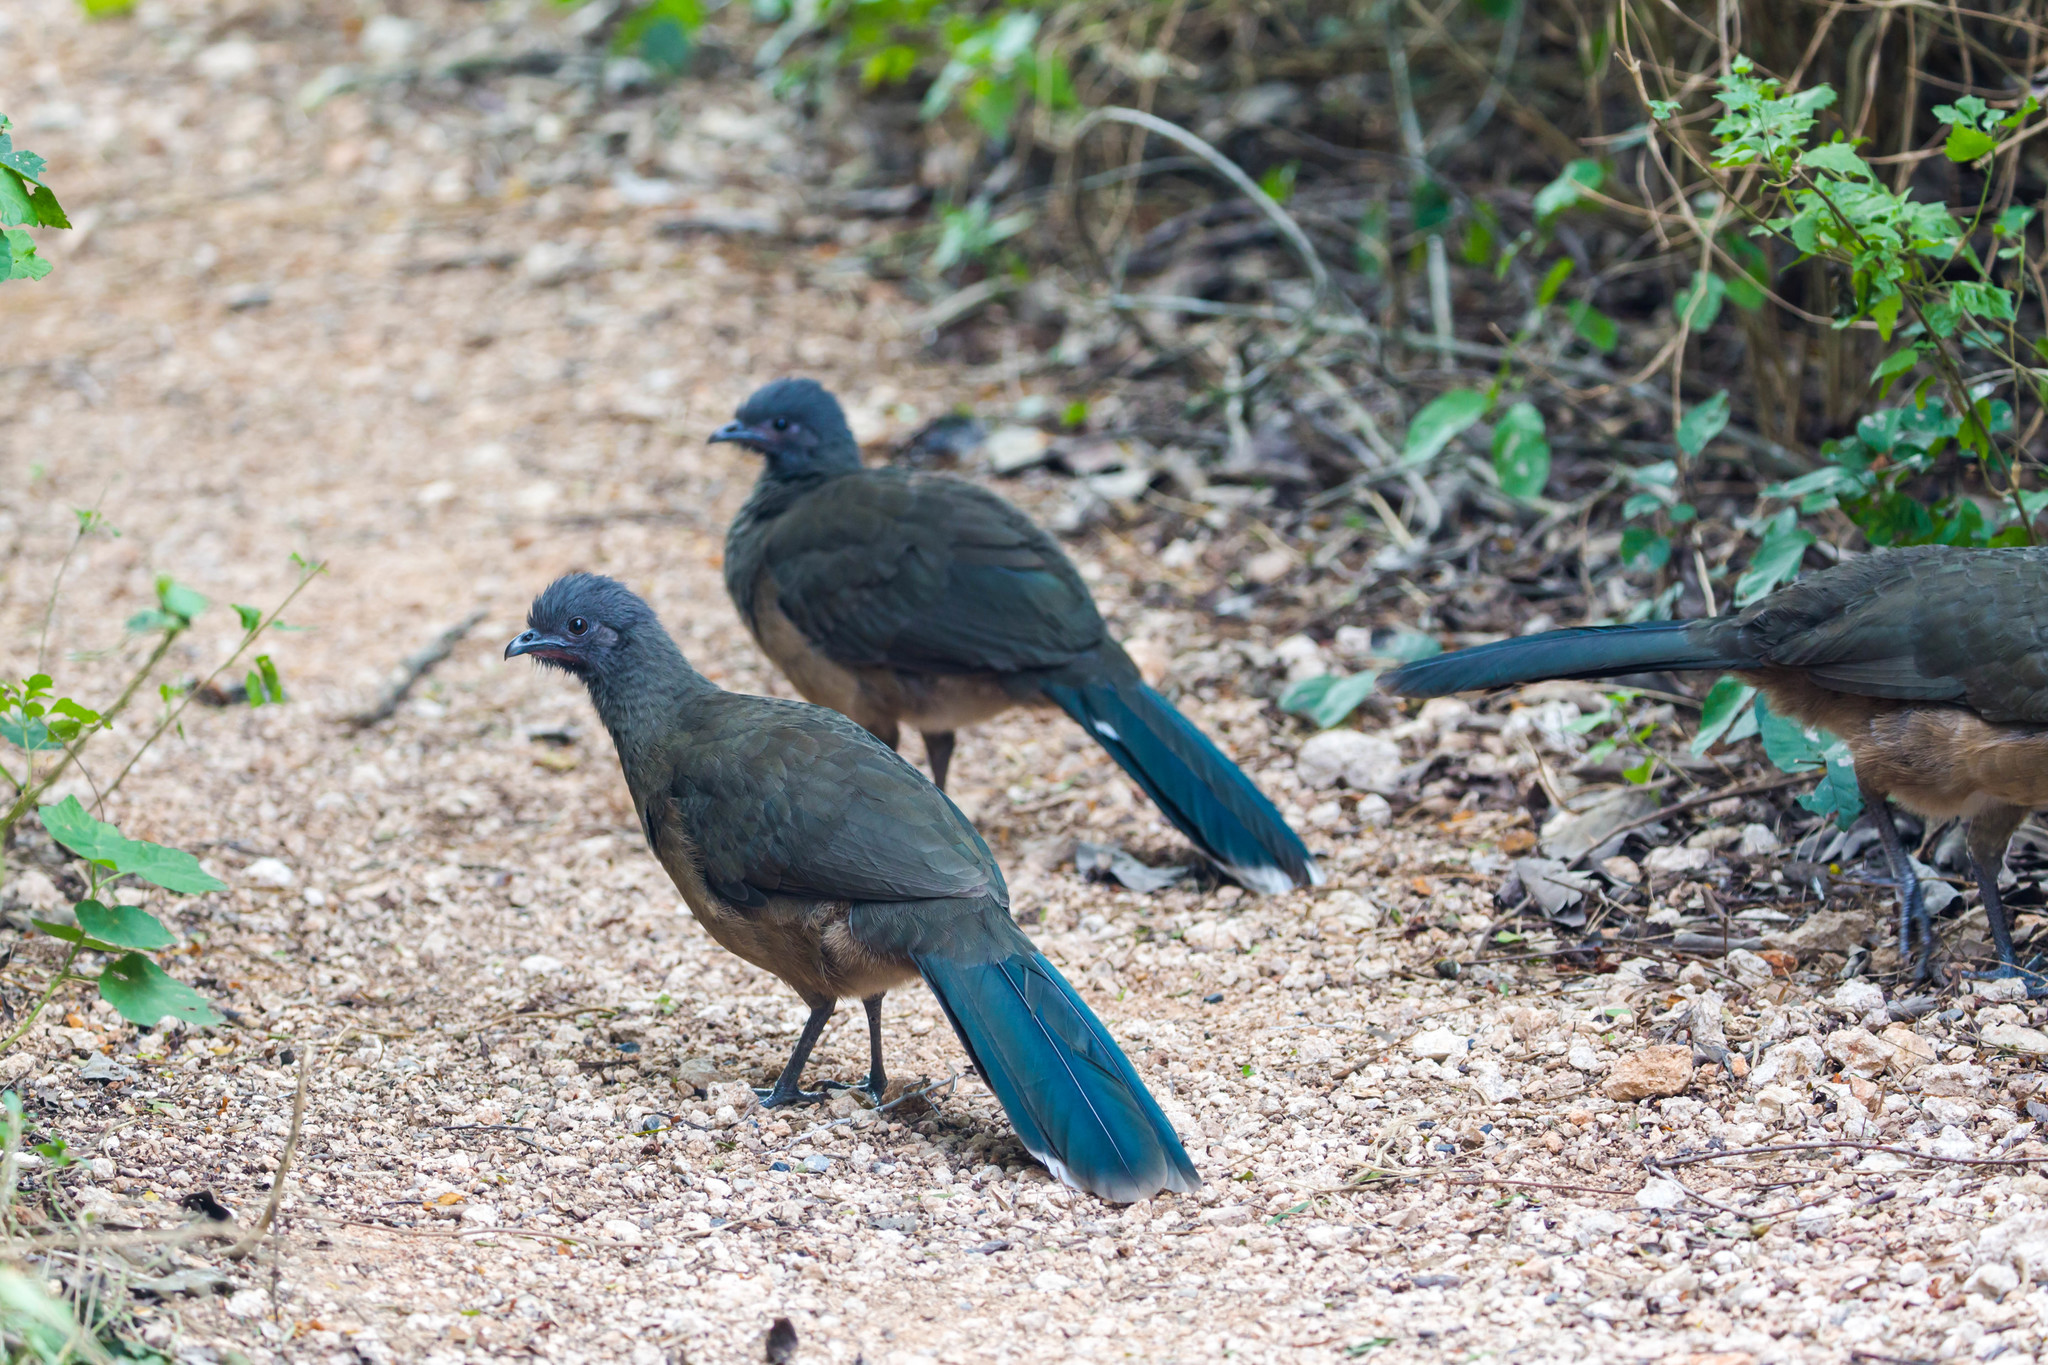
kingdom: Animalia
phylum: Chordata
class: Aves
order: Galliformes
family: Cracidae
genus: Ortalis
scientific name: Ortalis vetula
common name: Plain chachalaca
